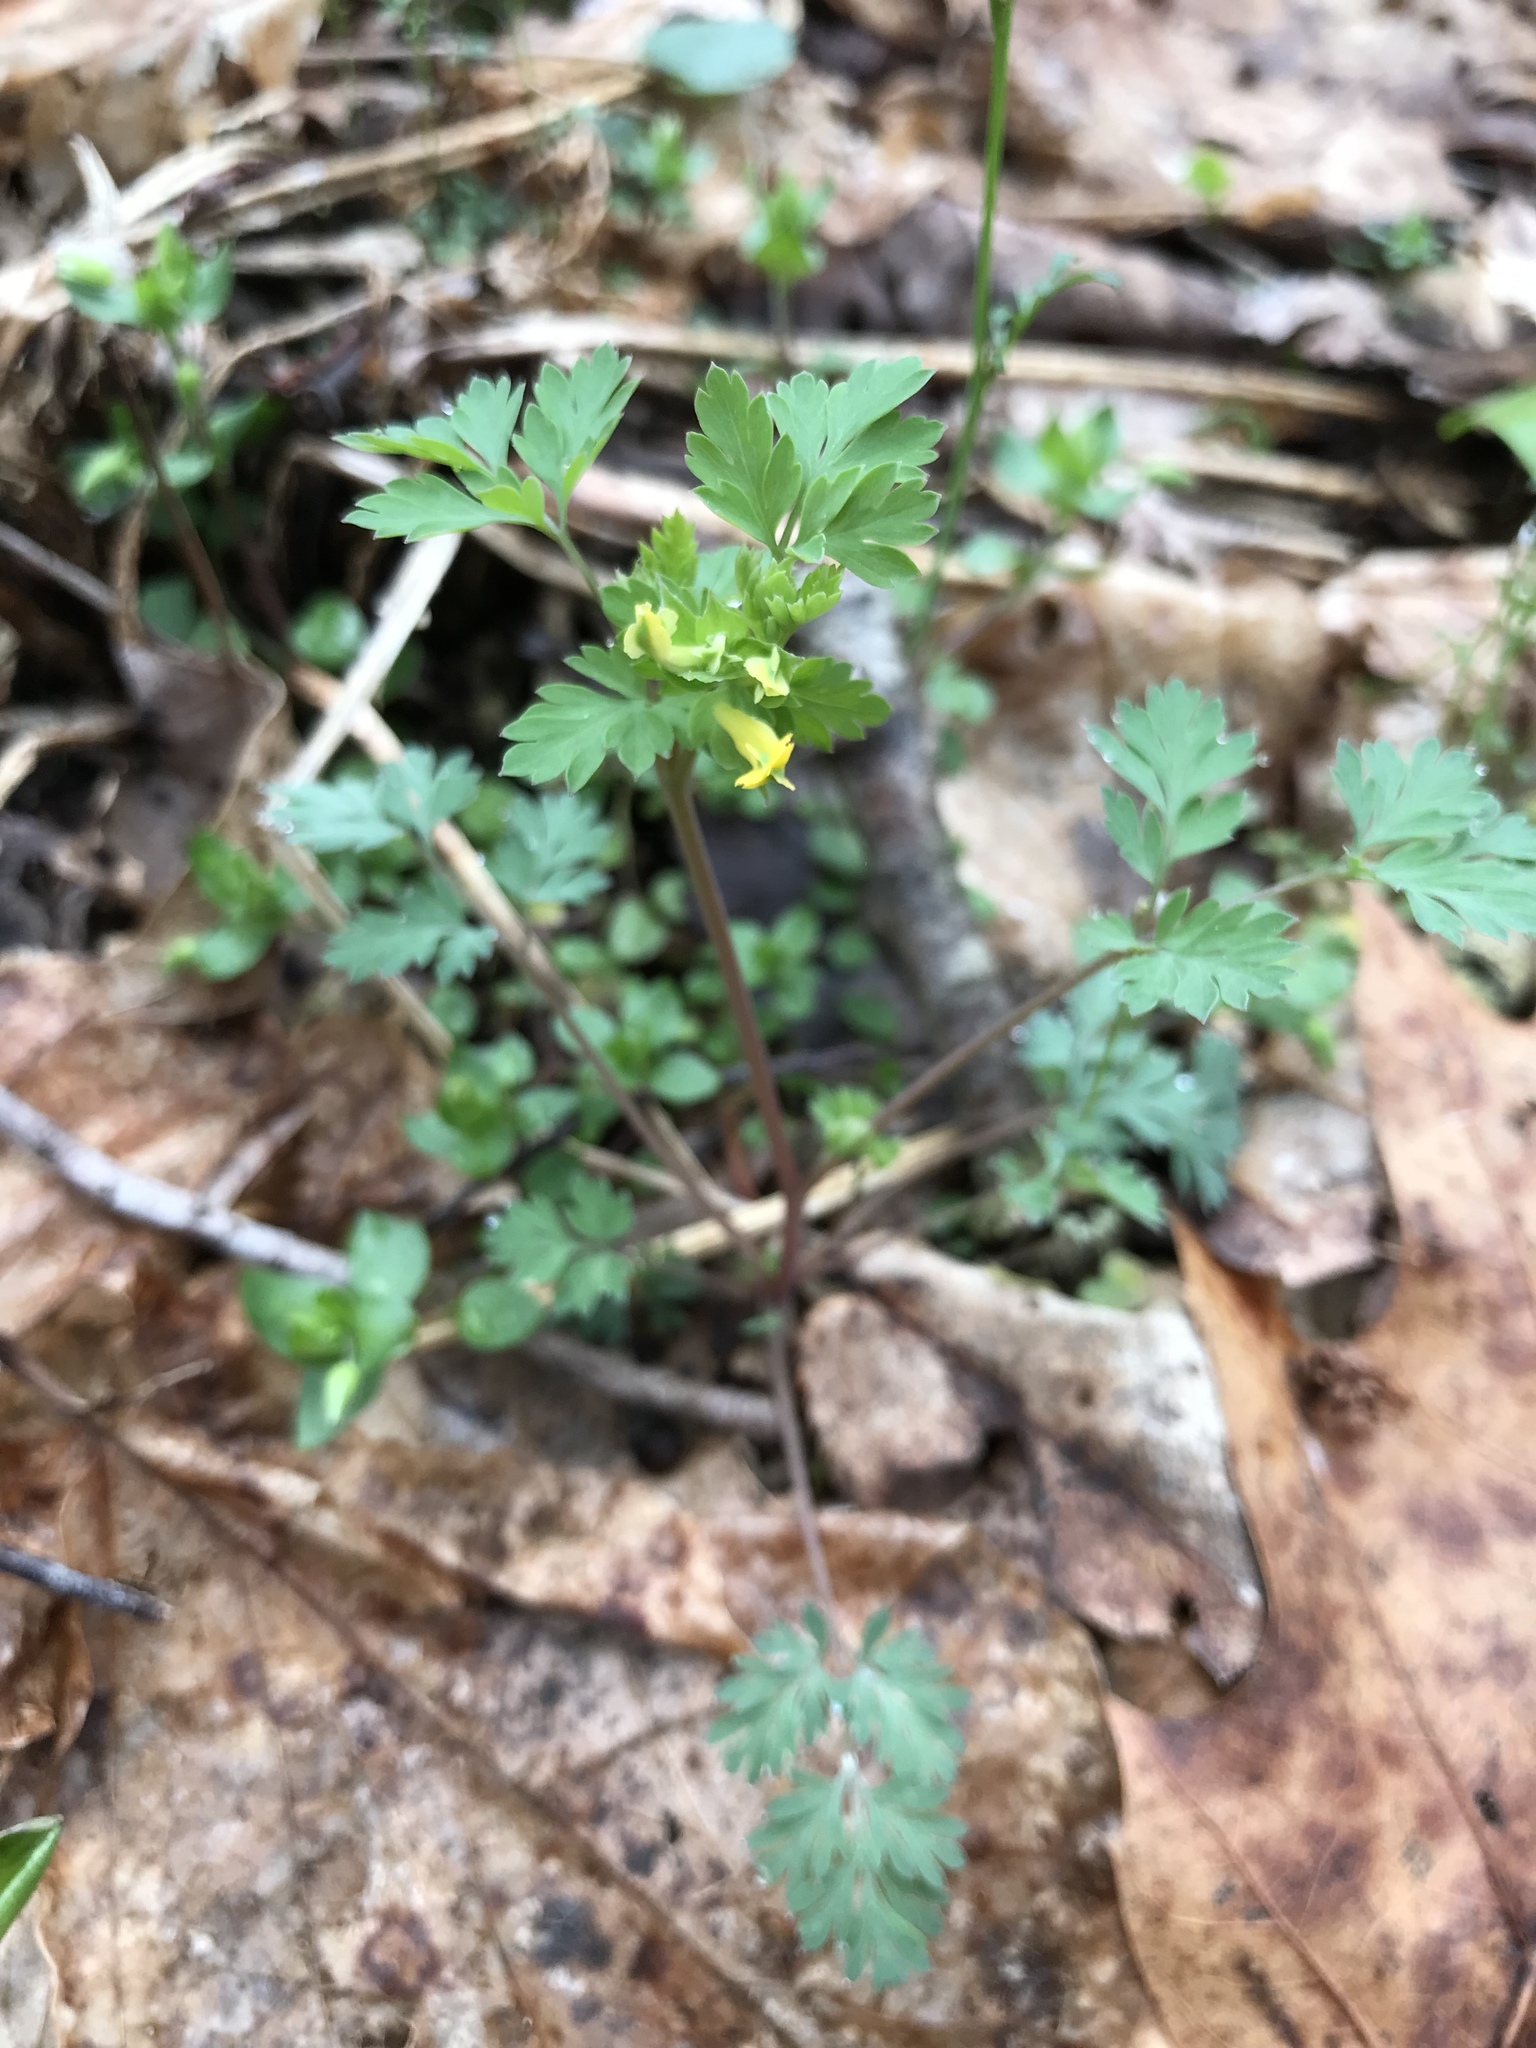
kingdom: Plantae
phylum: Tracheophyta
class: Magnoliopsida
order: Ranunculales
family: Papaveraceae
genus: Corydalis
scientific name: Corydalis flavula
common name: Yellow corydalis
